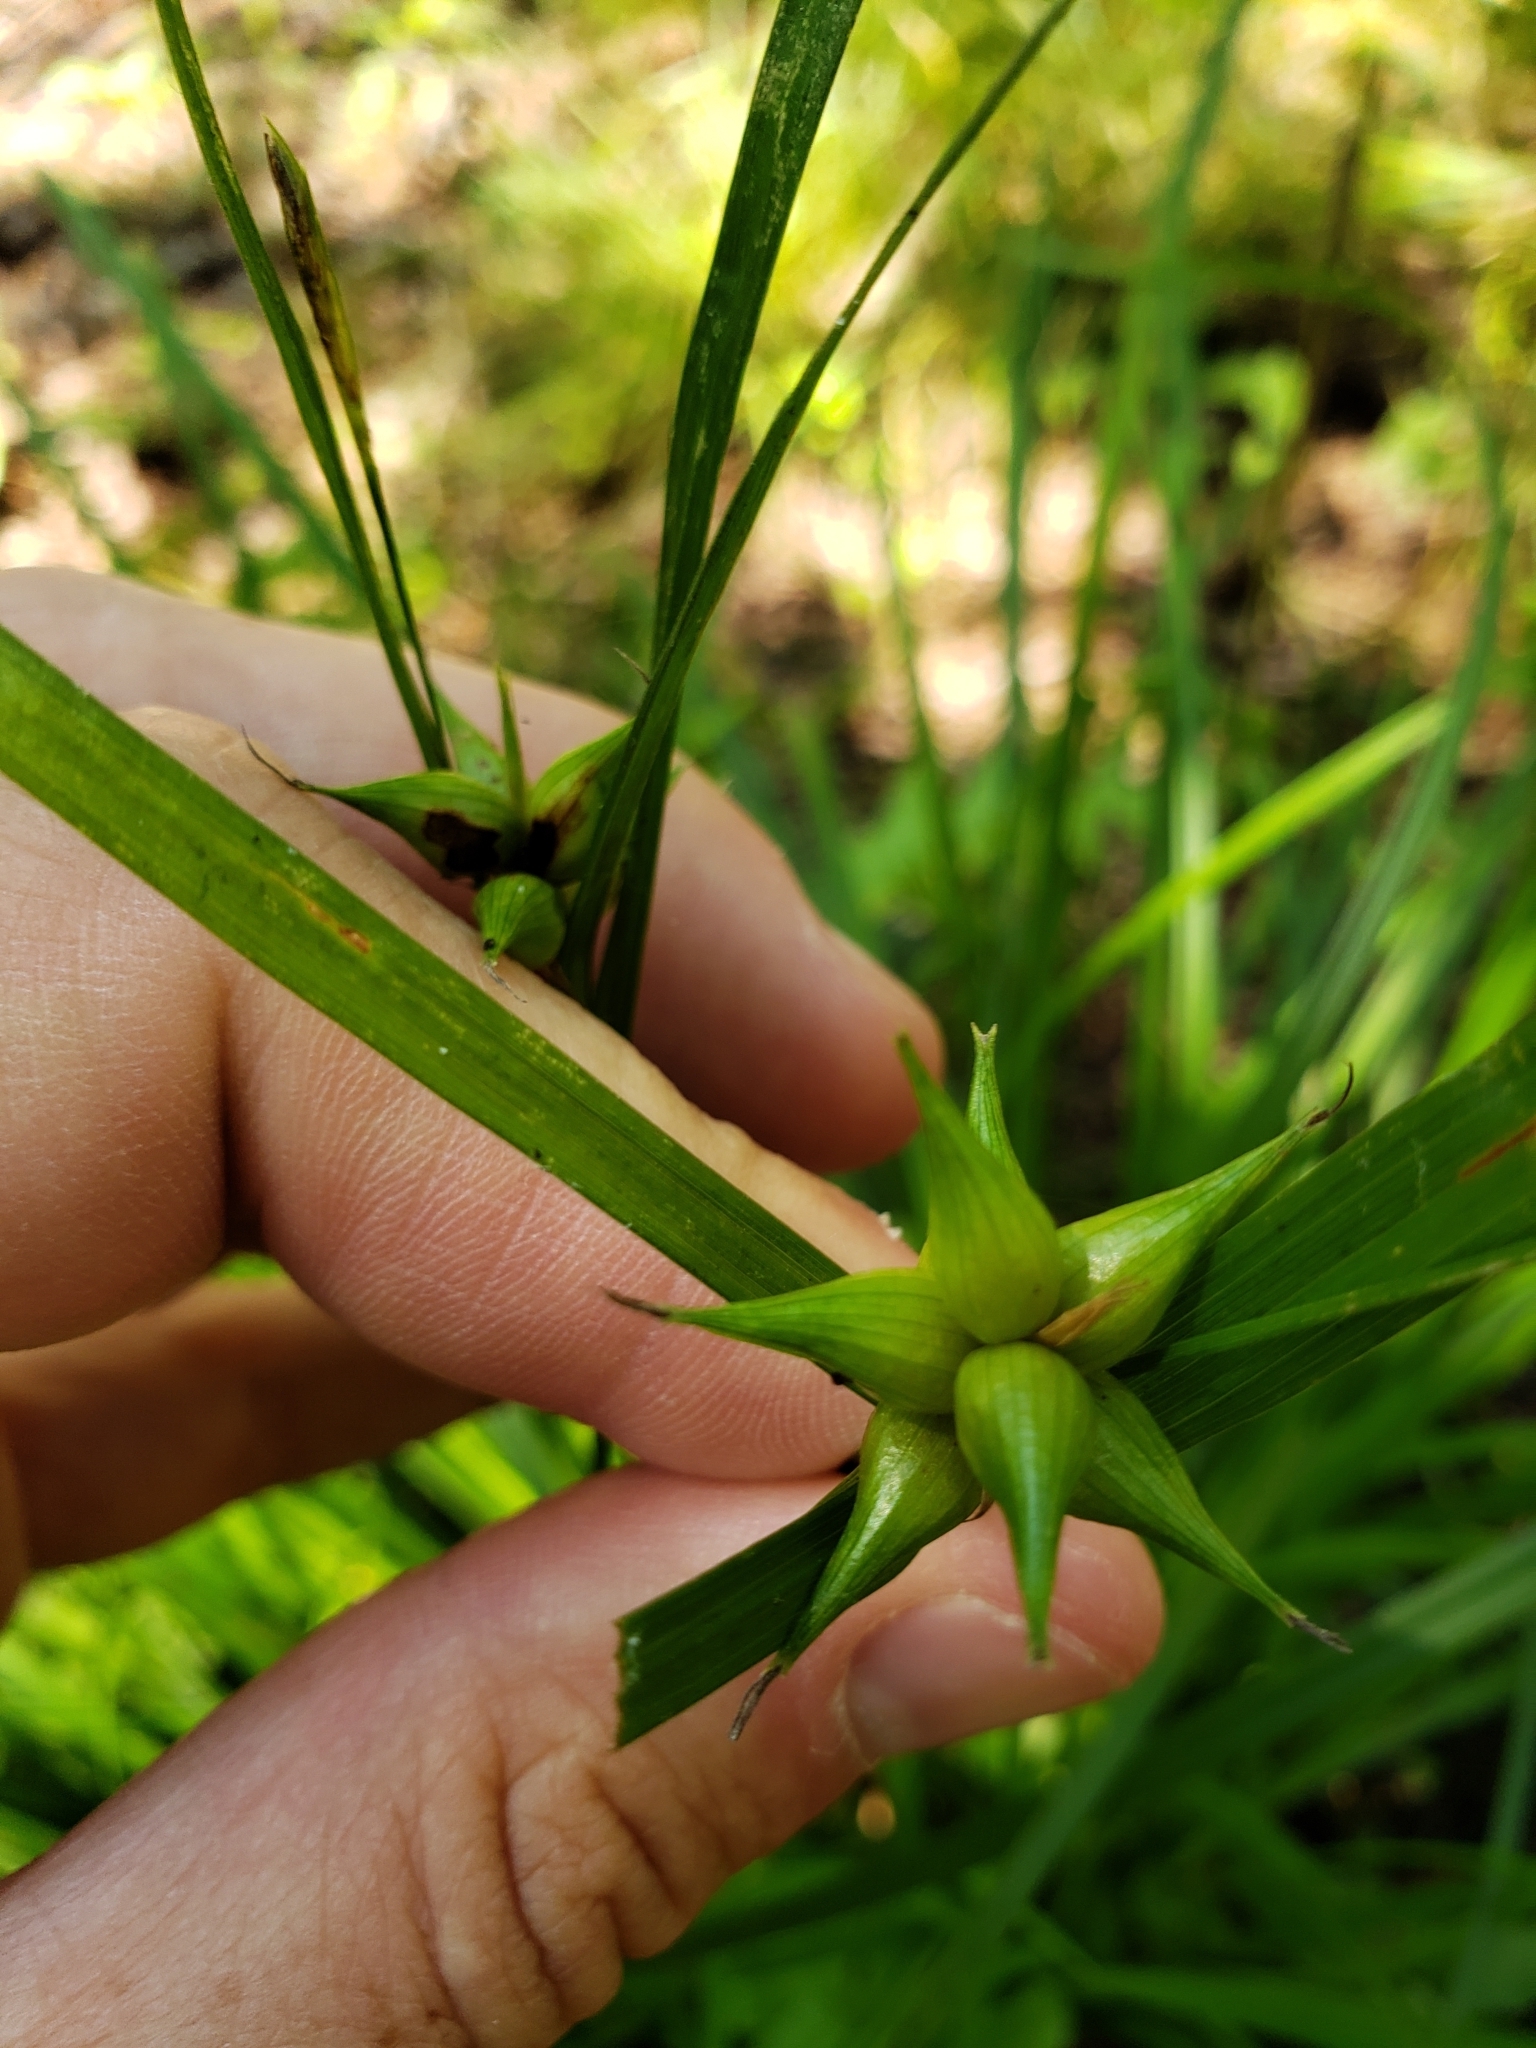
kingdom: Plantae
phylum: Tracheophyta
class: Liliopsida
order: Poales
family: Cyperaceae
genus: Carex
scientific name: Carex intumescens
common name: Greater bladder sedge
